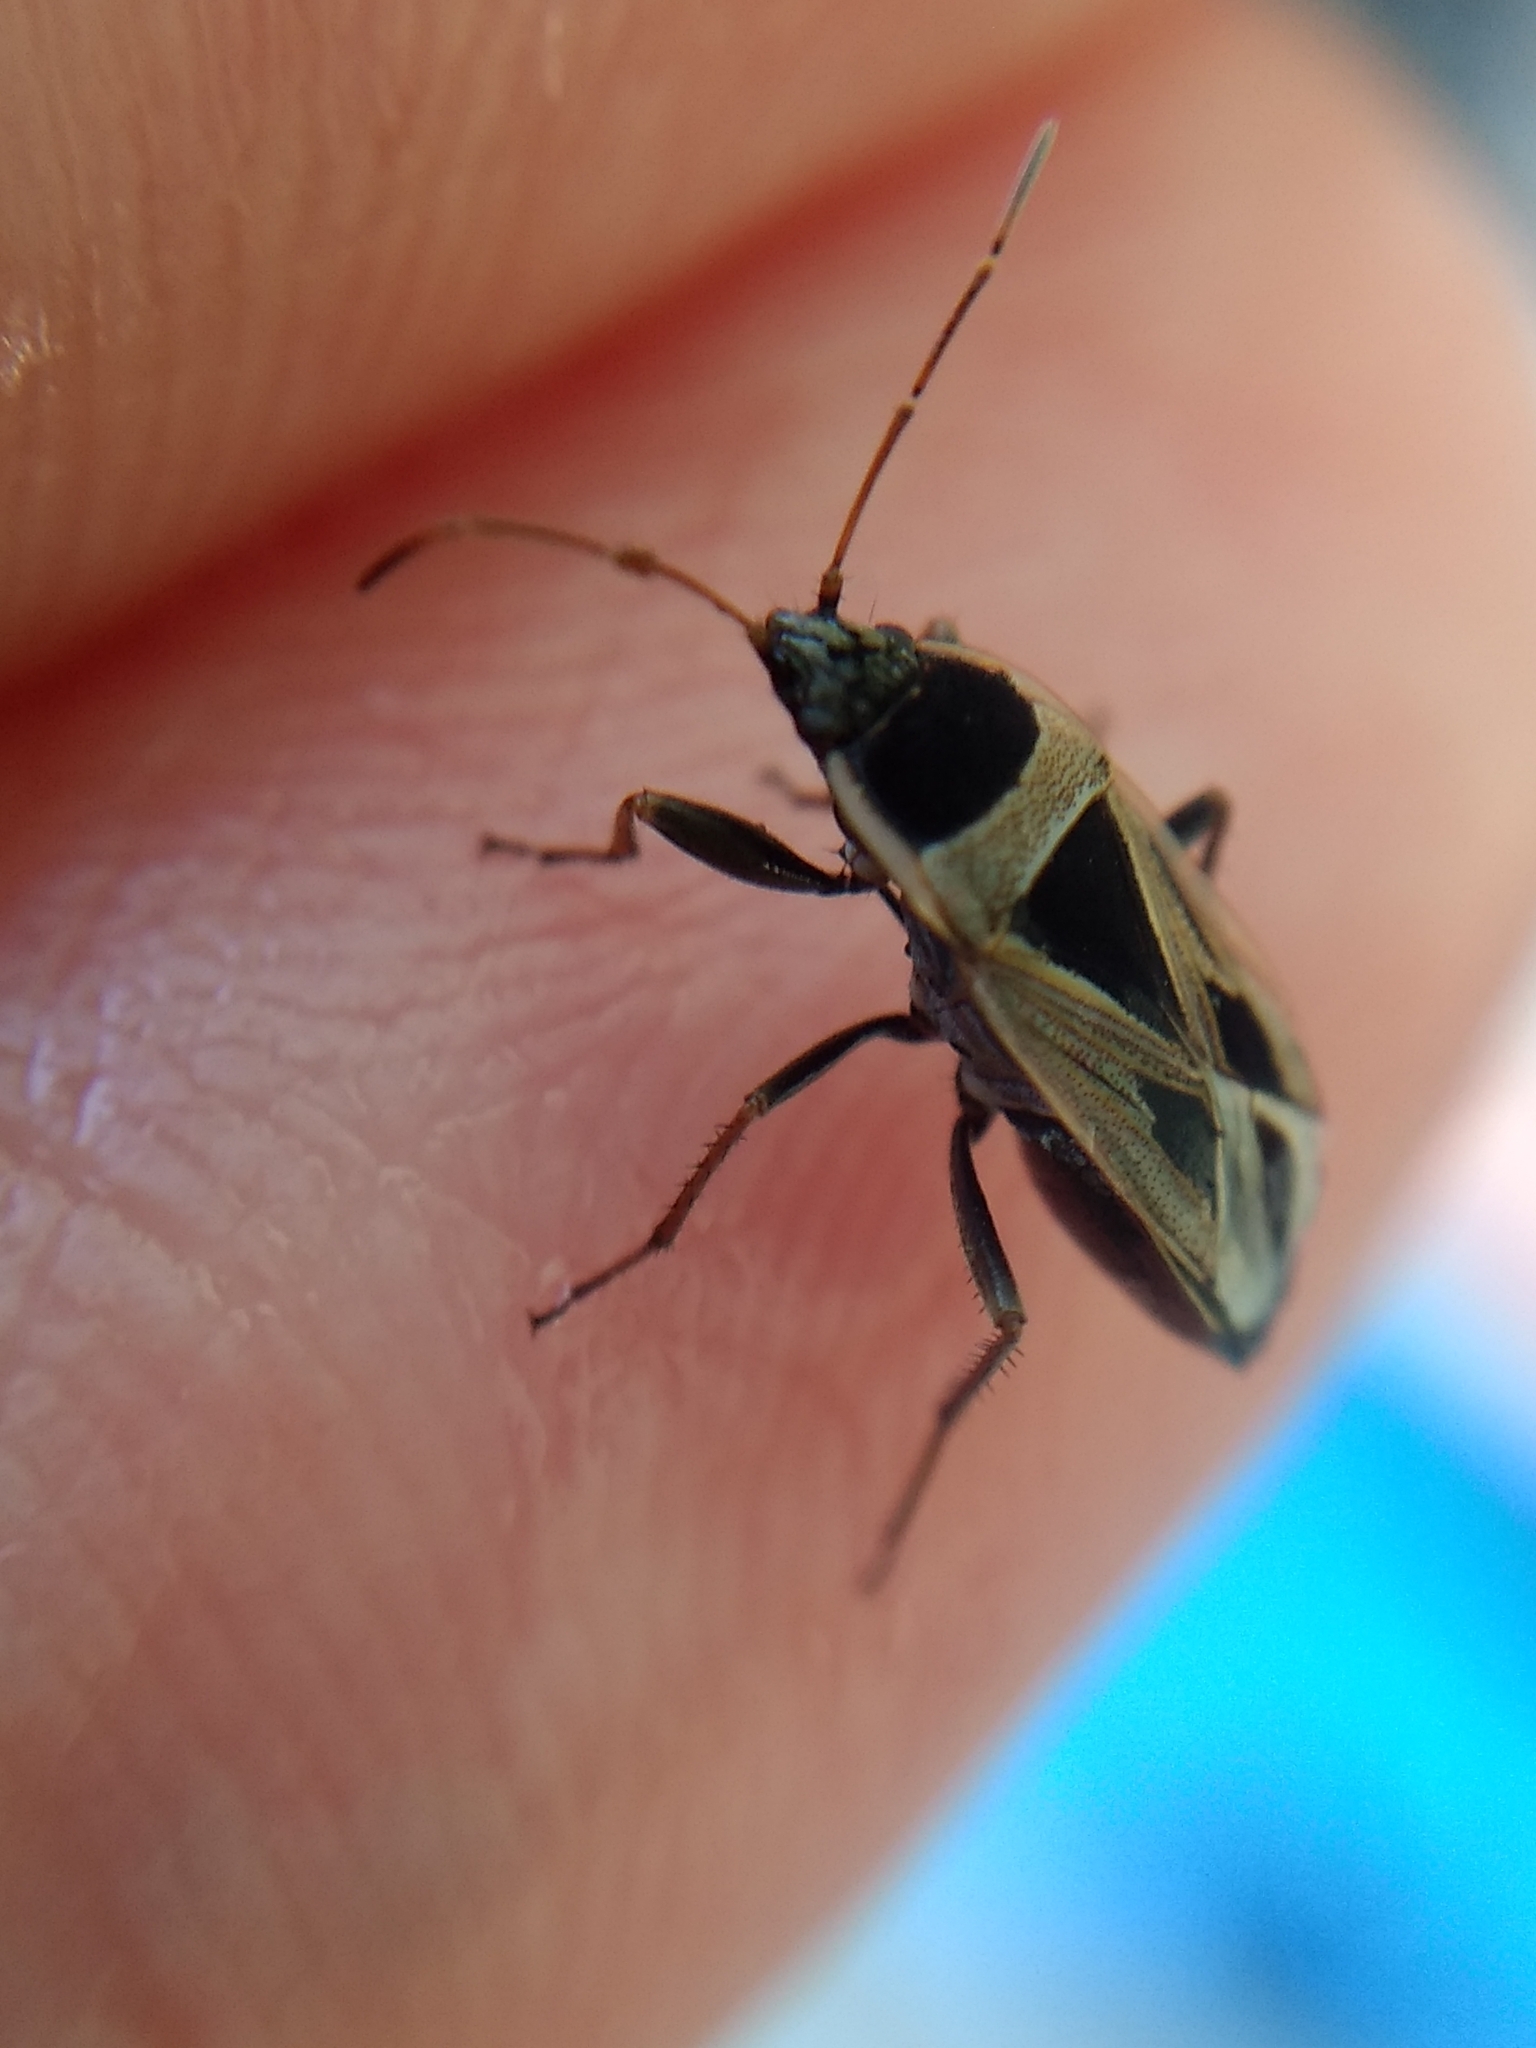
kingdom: Animalia
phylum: Arthropoda
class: Insecta
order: Hemiptera
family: Rhyparochromidae
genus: Xanthochilus
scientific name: Xanthochilus saturnius
